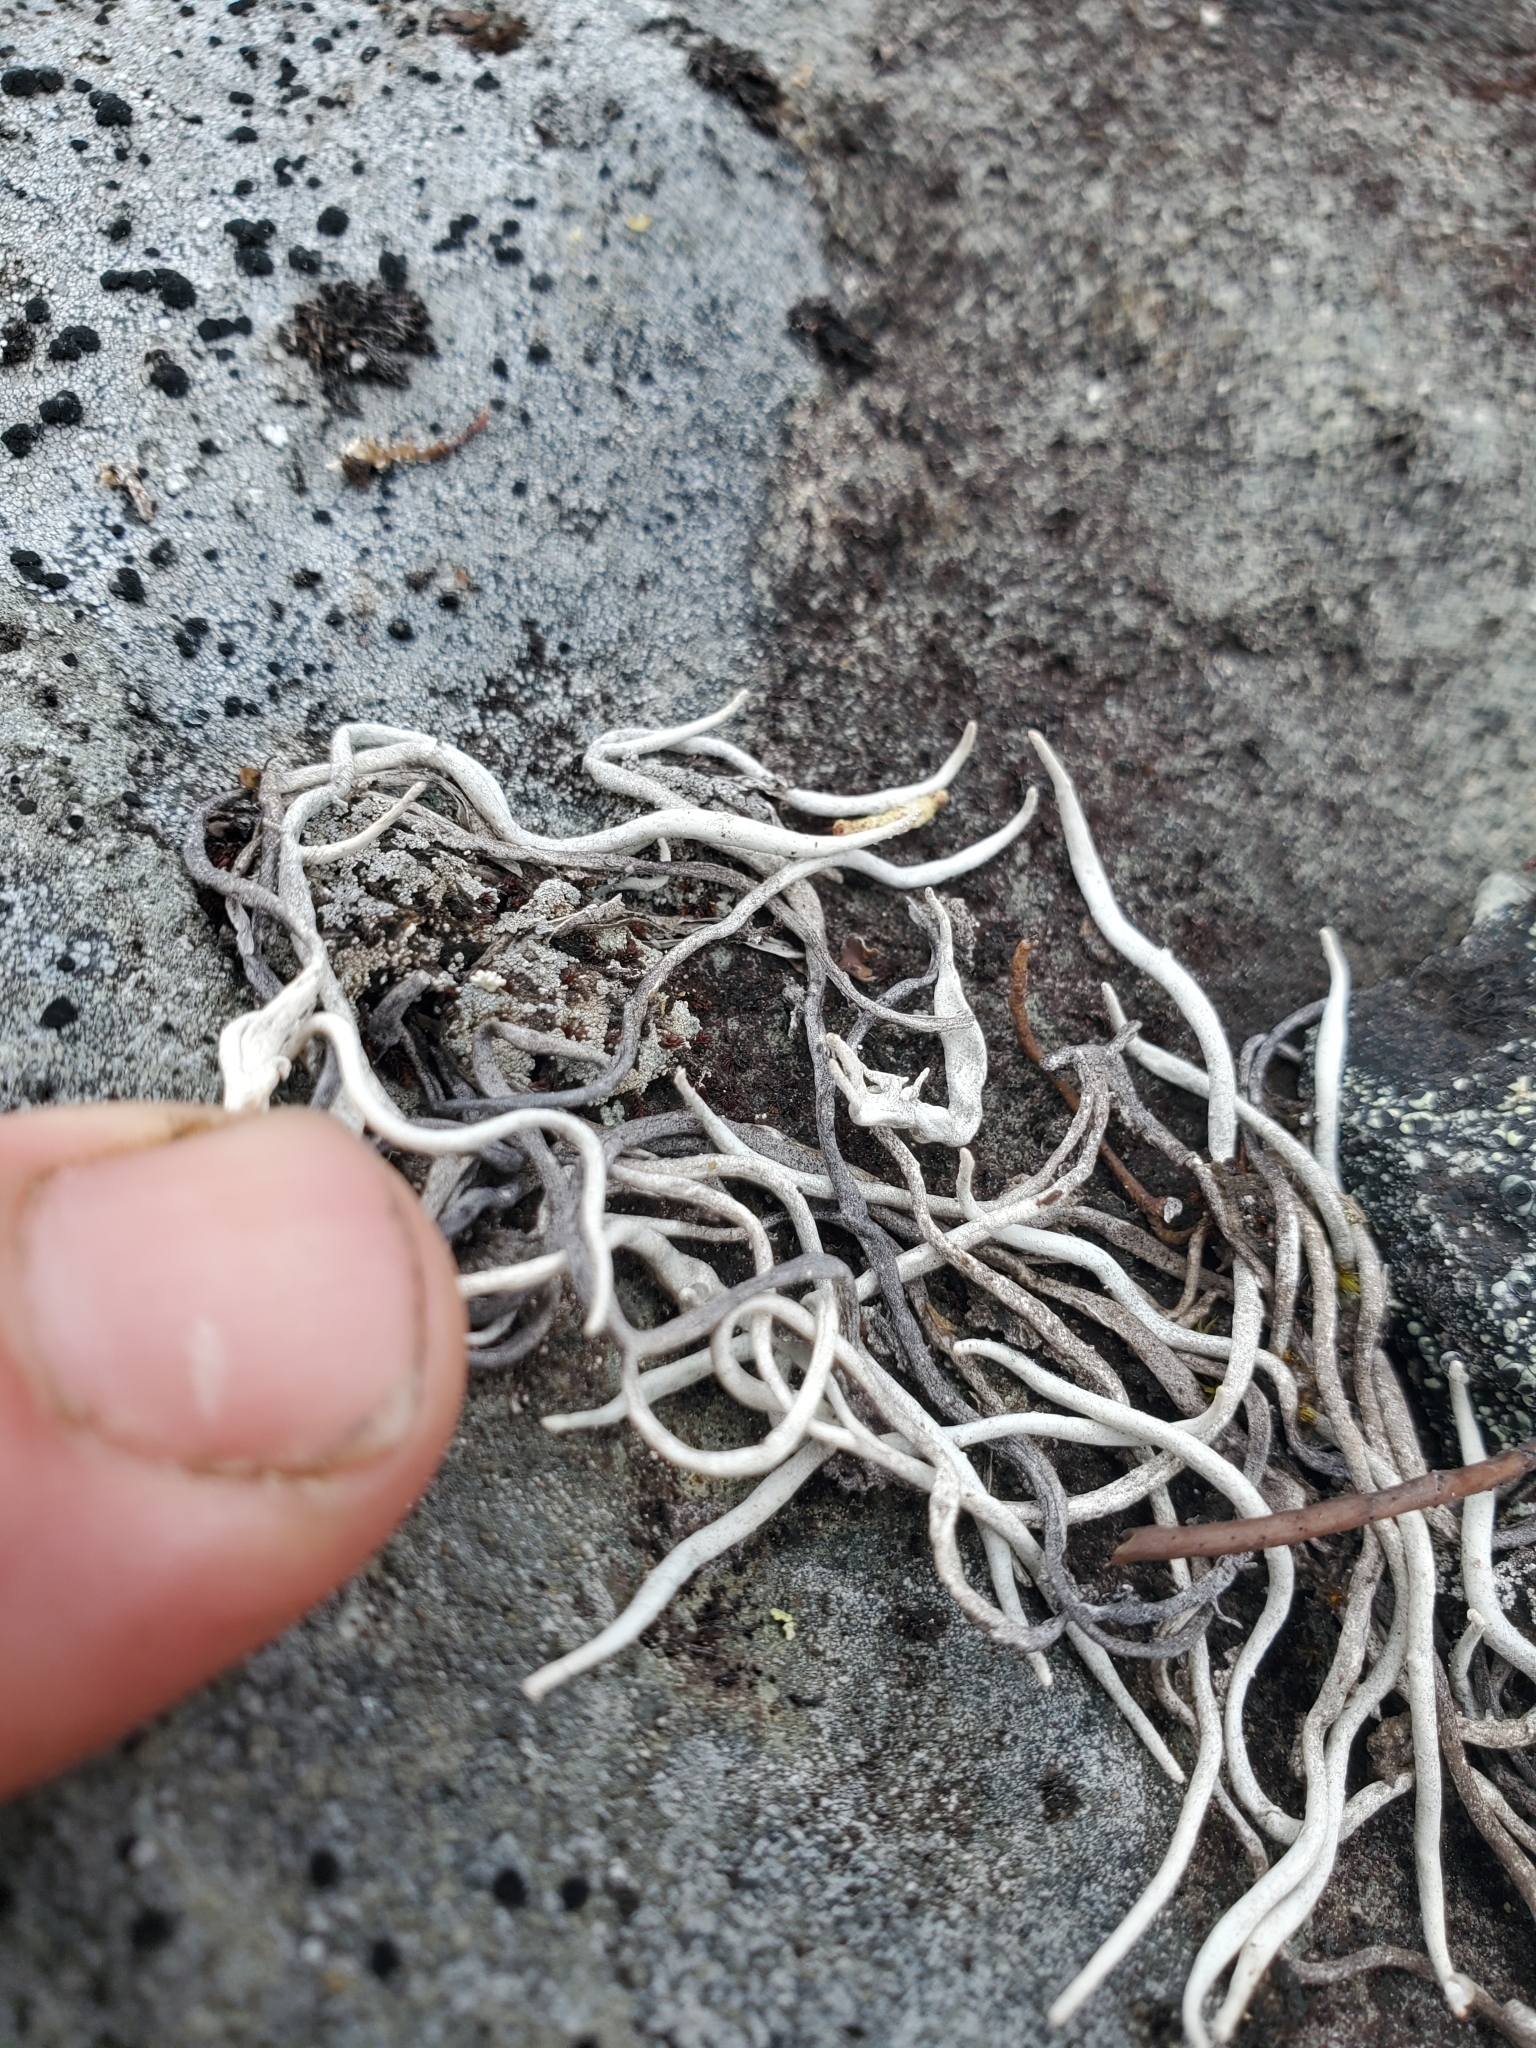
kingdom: Fungi
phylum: Ascomycota
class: Lecanoromycetes
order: Pertusariales
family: Icmadophilaceae
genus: Thamnolia
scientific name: Thamnolia vermicularis
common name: Whiteworm lichen
